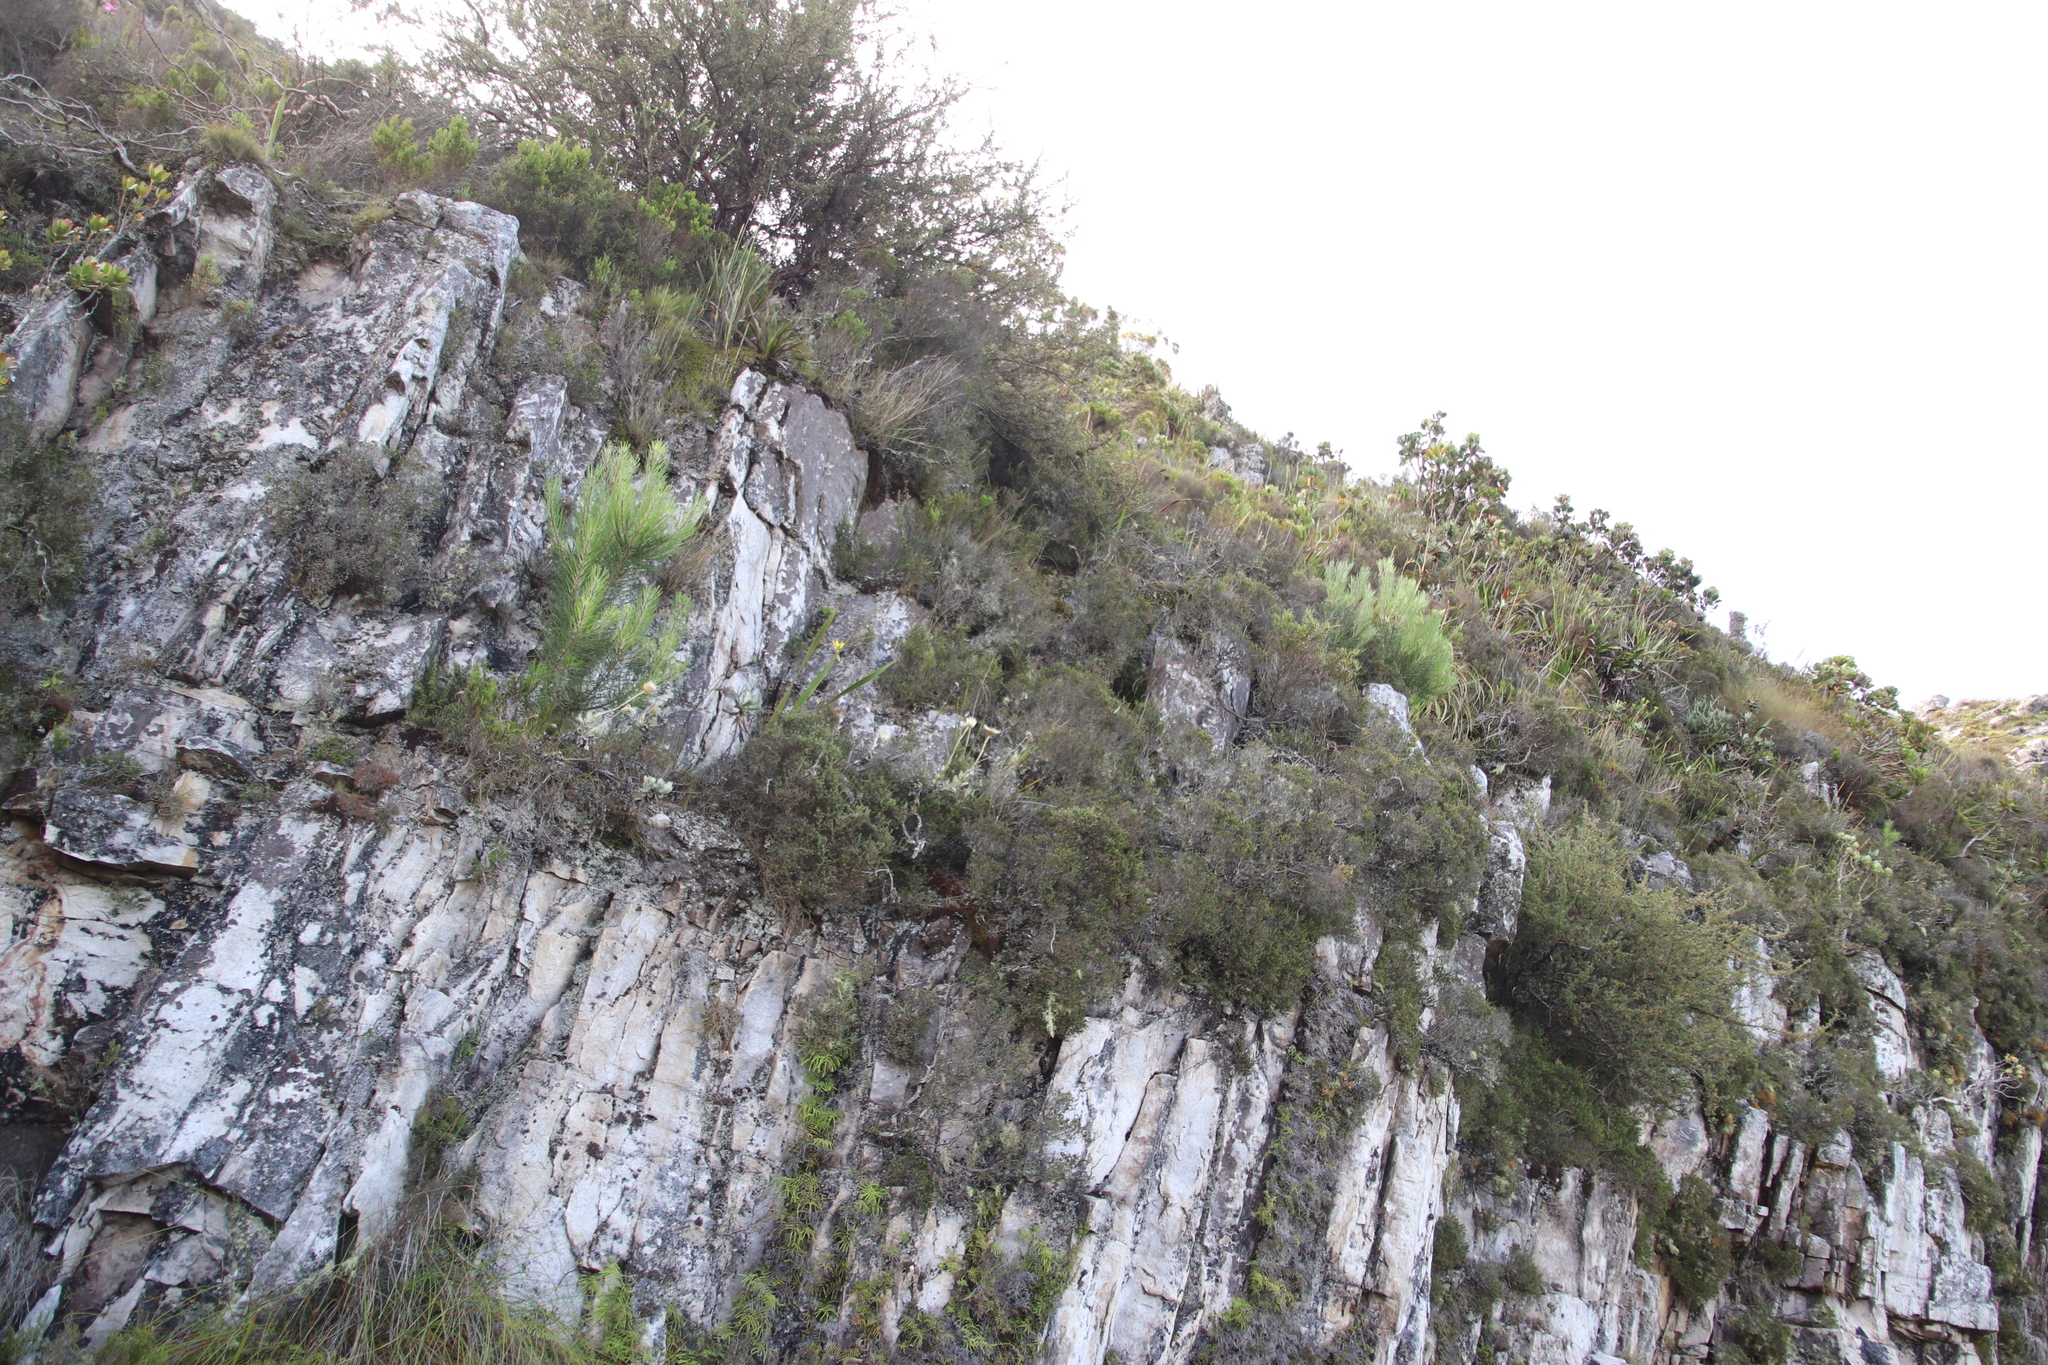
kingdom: Plantae
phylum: Tracheophyta
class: Pinopsida
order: Pinales
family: Pinaceae
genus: Pinus
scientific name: Pinus pinaster
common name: Maritime pine
